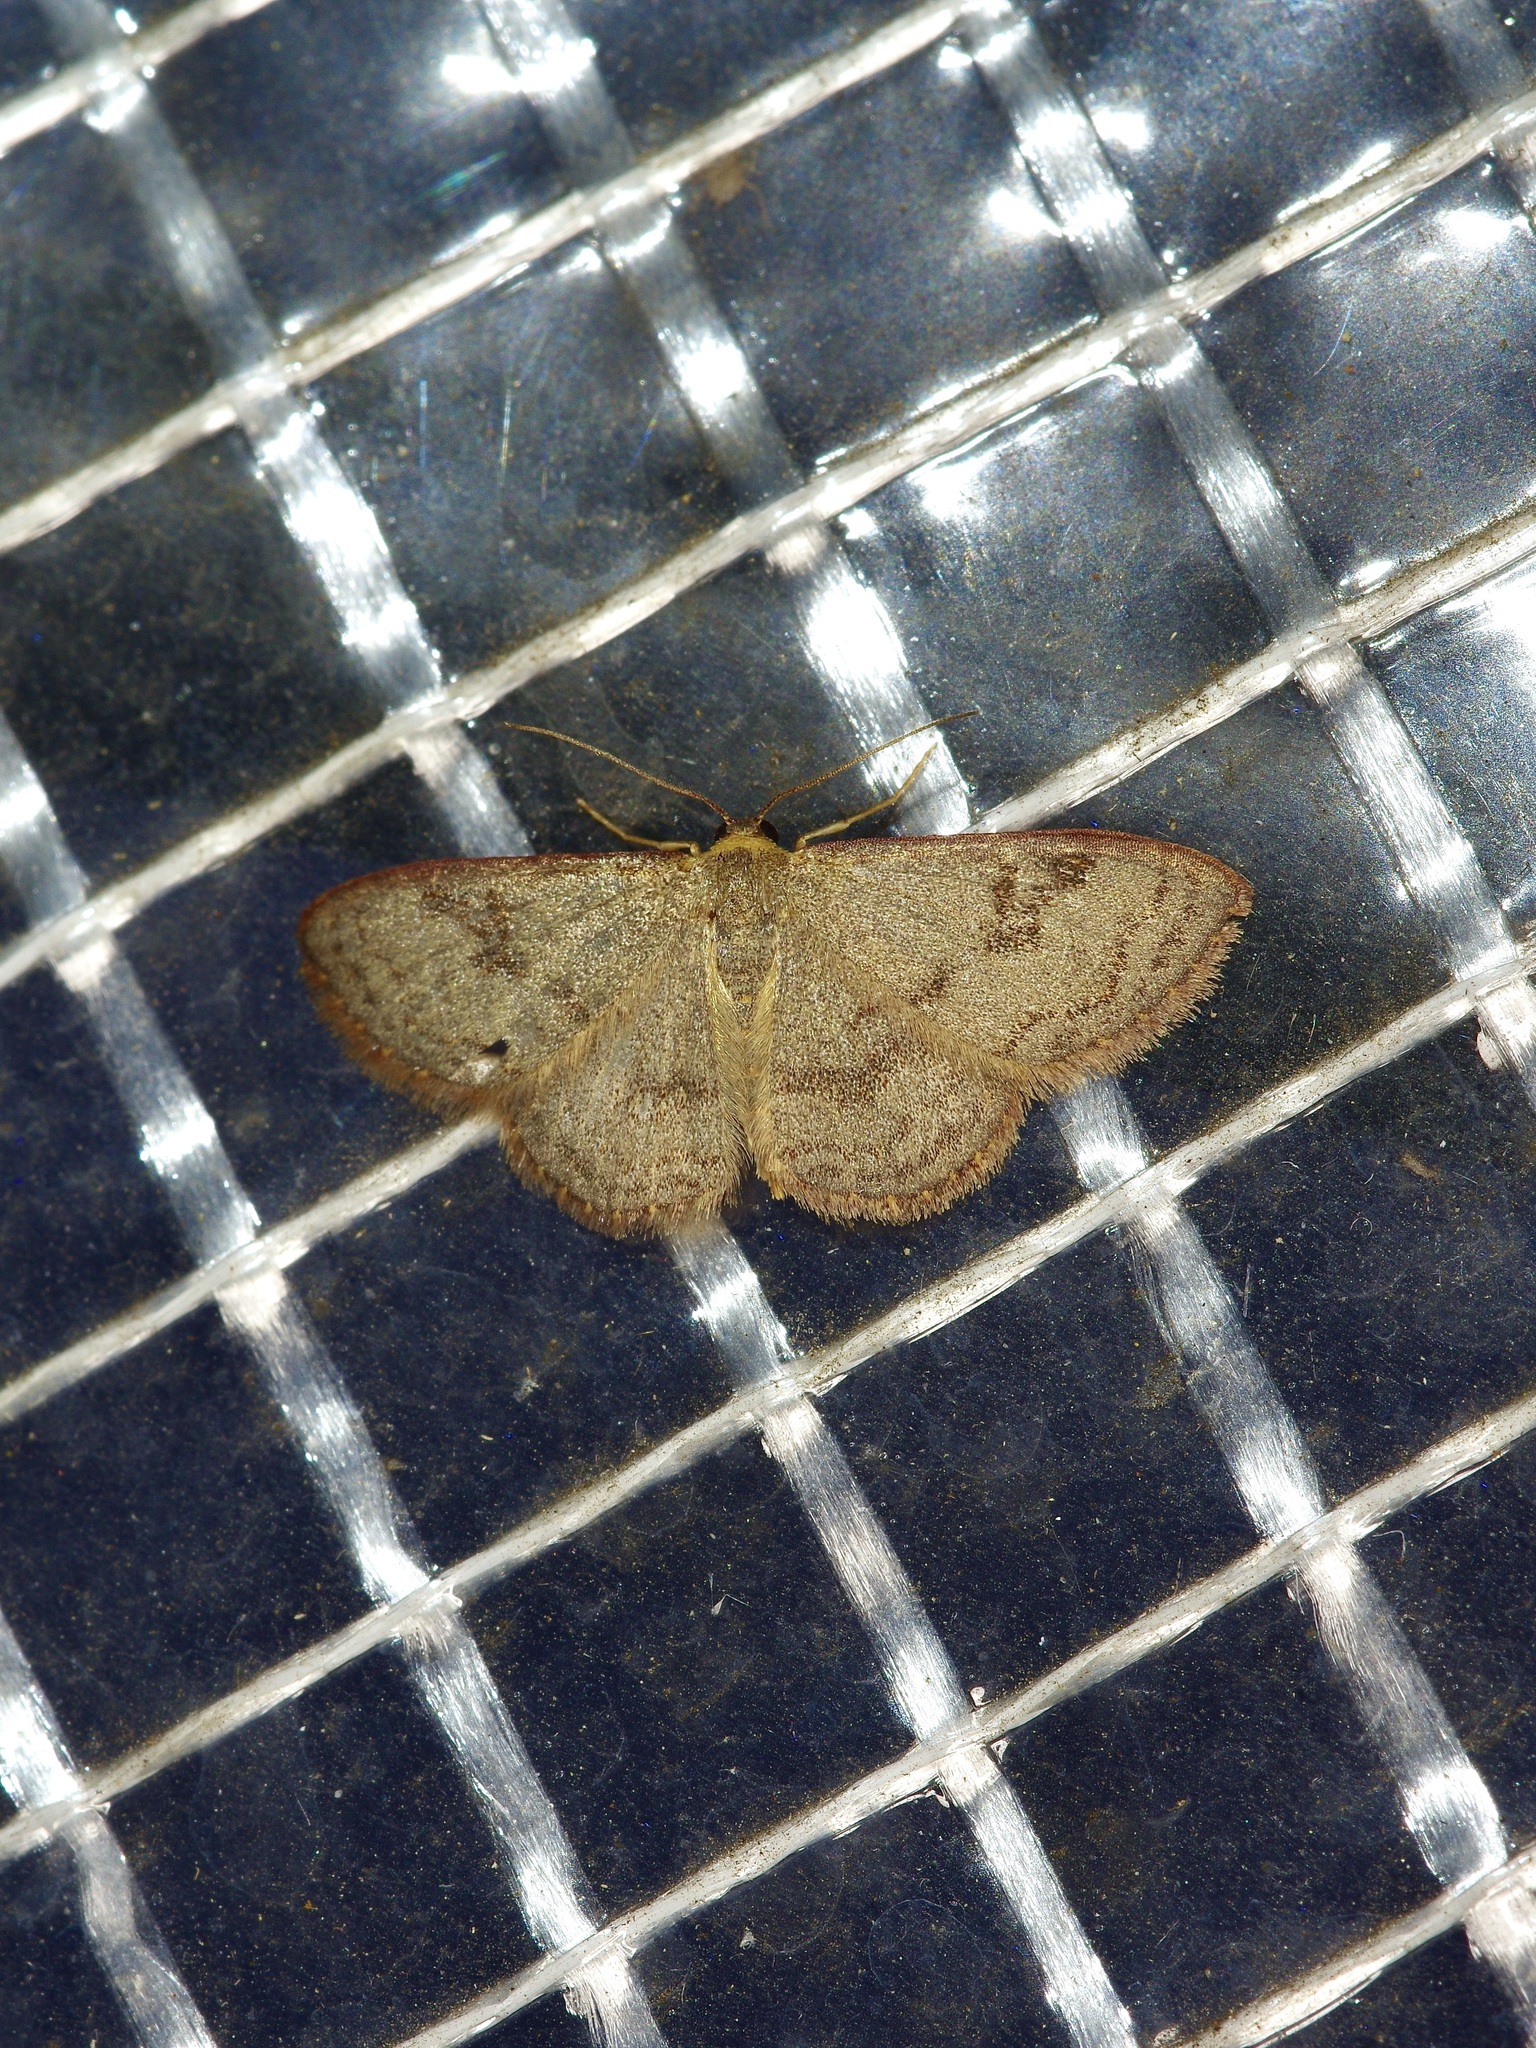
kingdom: Animalia
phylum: Arthropoda
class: Insecta
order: Lepidoptera
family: Geometridae
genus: Leptostales
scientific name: Leptostales pannaria
